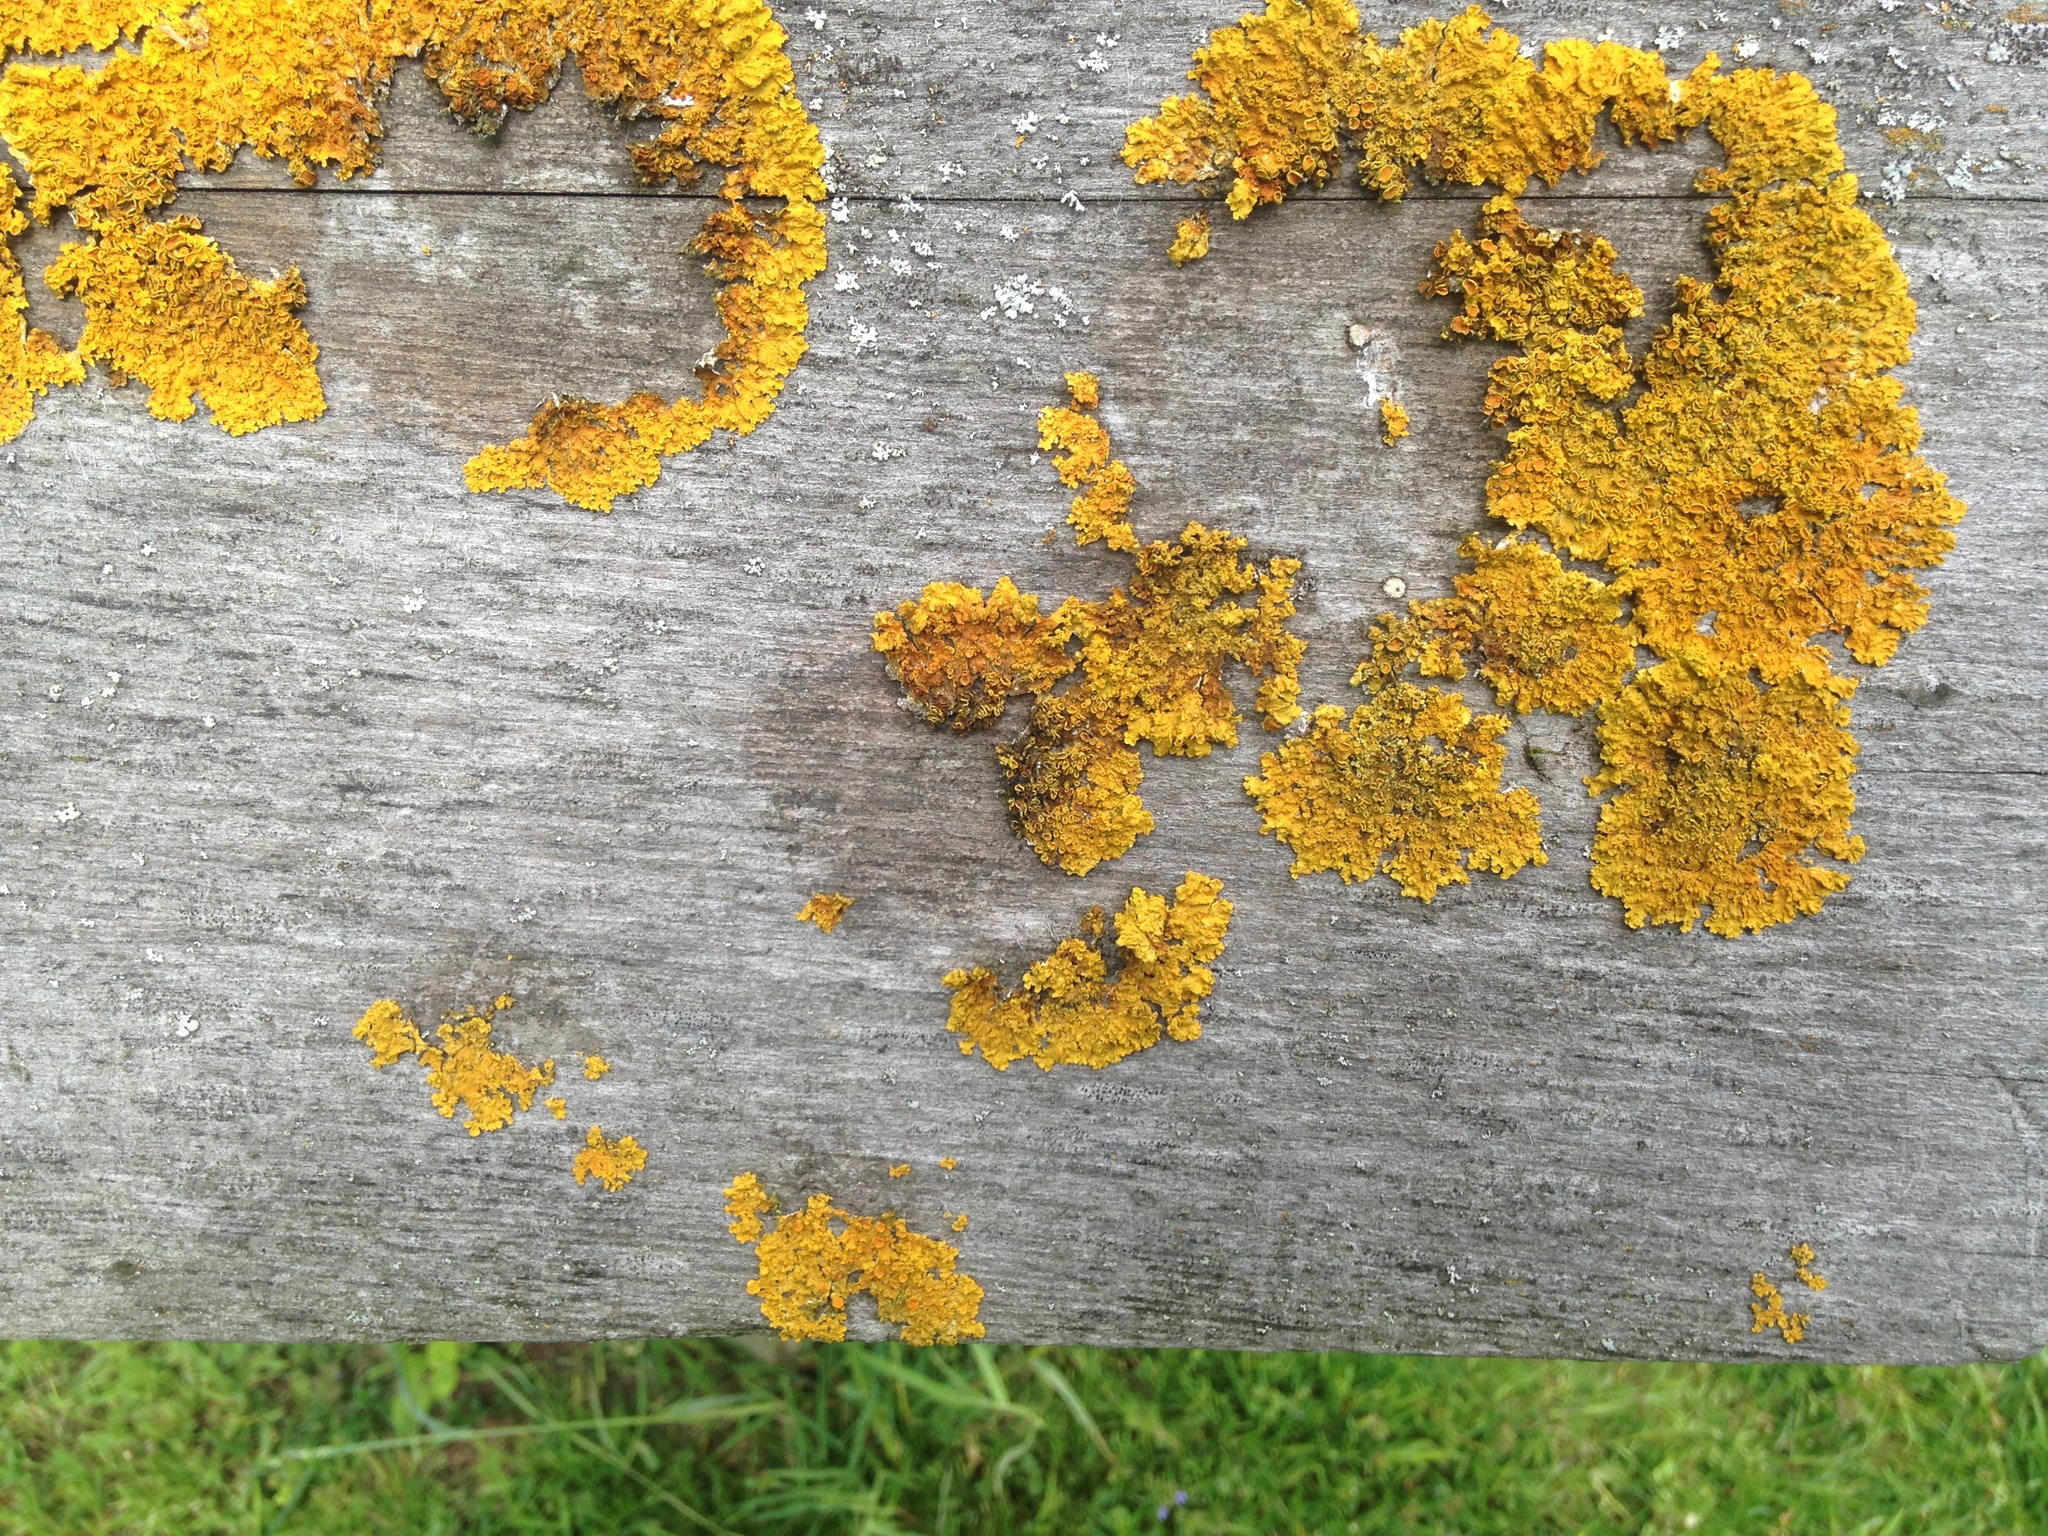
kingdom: Fungi
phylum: Ascomycota
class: Lecanoromycetes
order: Teloschistales
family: Teloschistaceae
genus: Xanthoria
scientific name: Xanthoria parietina
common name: Common orange lichen
